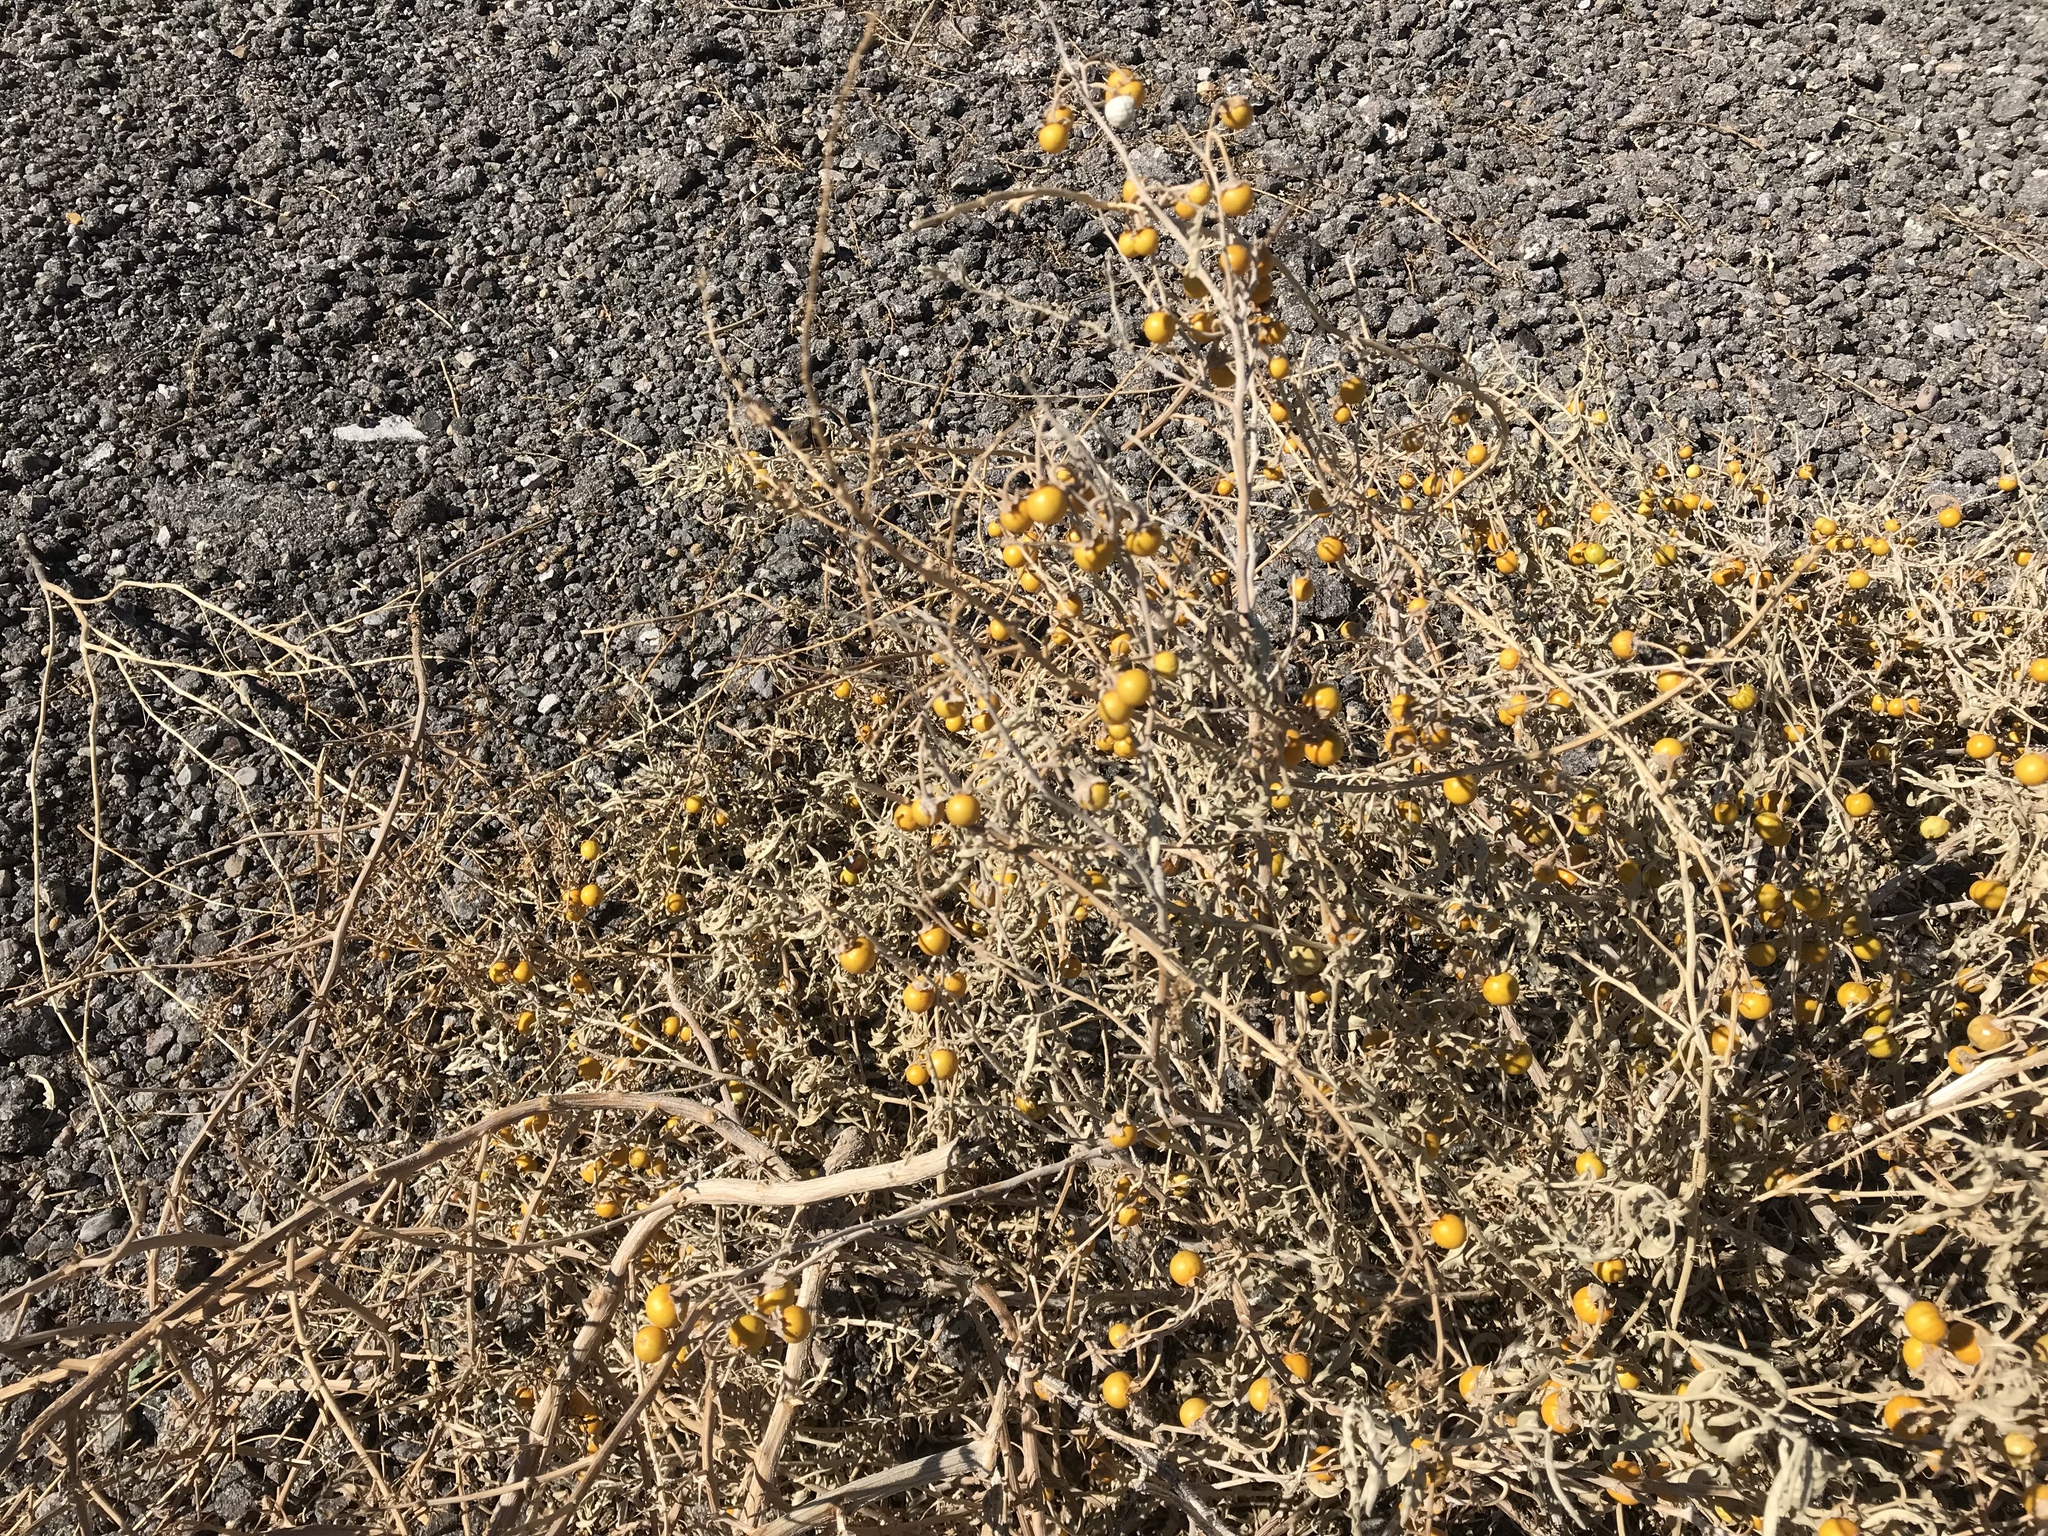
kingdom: Plantae
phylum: Tracheophyta
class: Magnoliopsida
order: Solanales
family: Solanaceae
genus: Solanum
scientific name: Solanum elaeagnifolium
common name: Silverleaf nightshade
